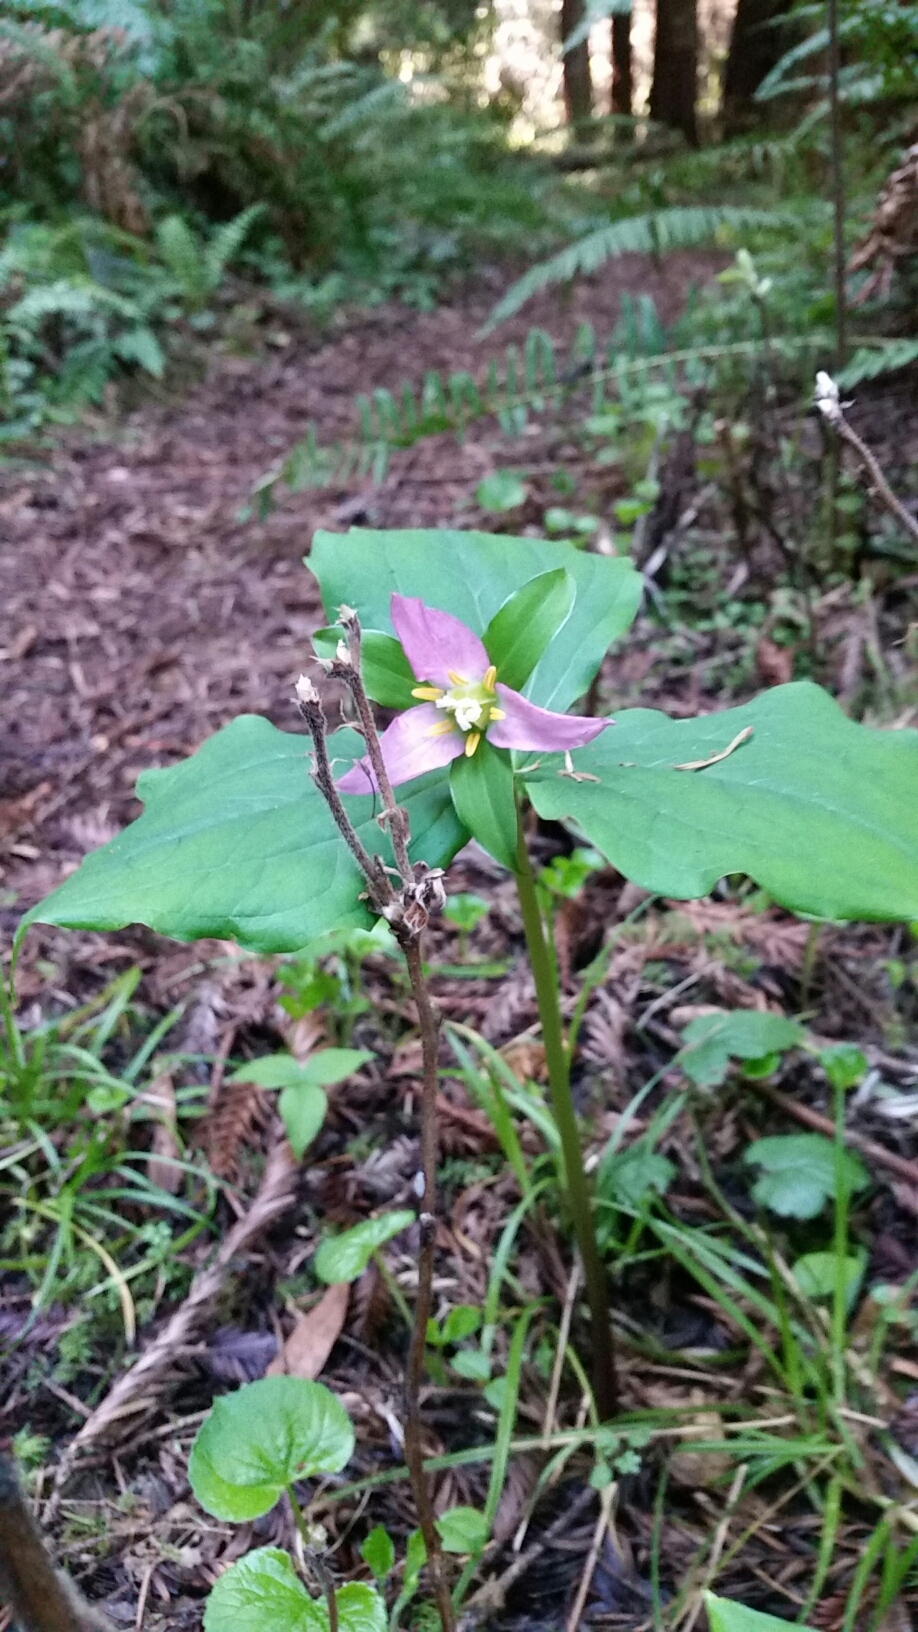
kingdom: Plantae
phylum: Tracheophyta
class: Liliopsida
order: Liliales
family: Melanthiaceae
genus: Trillium
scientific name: Trillium ovatum
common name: Pacific trillium
